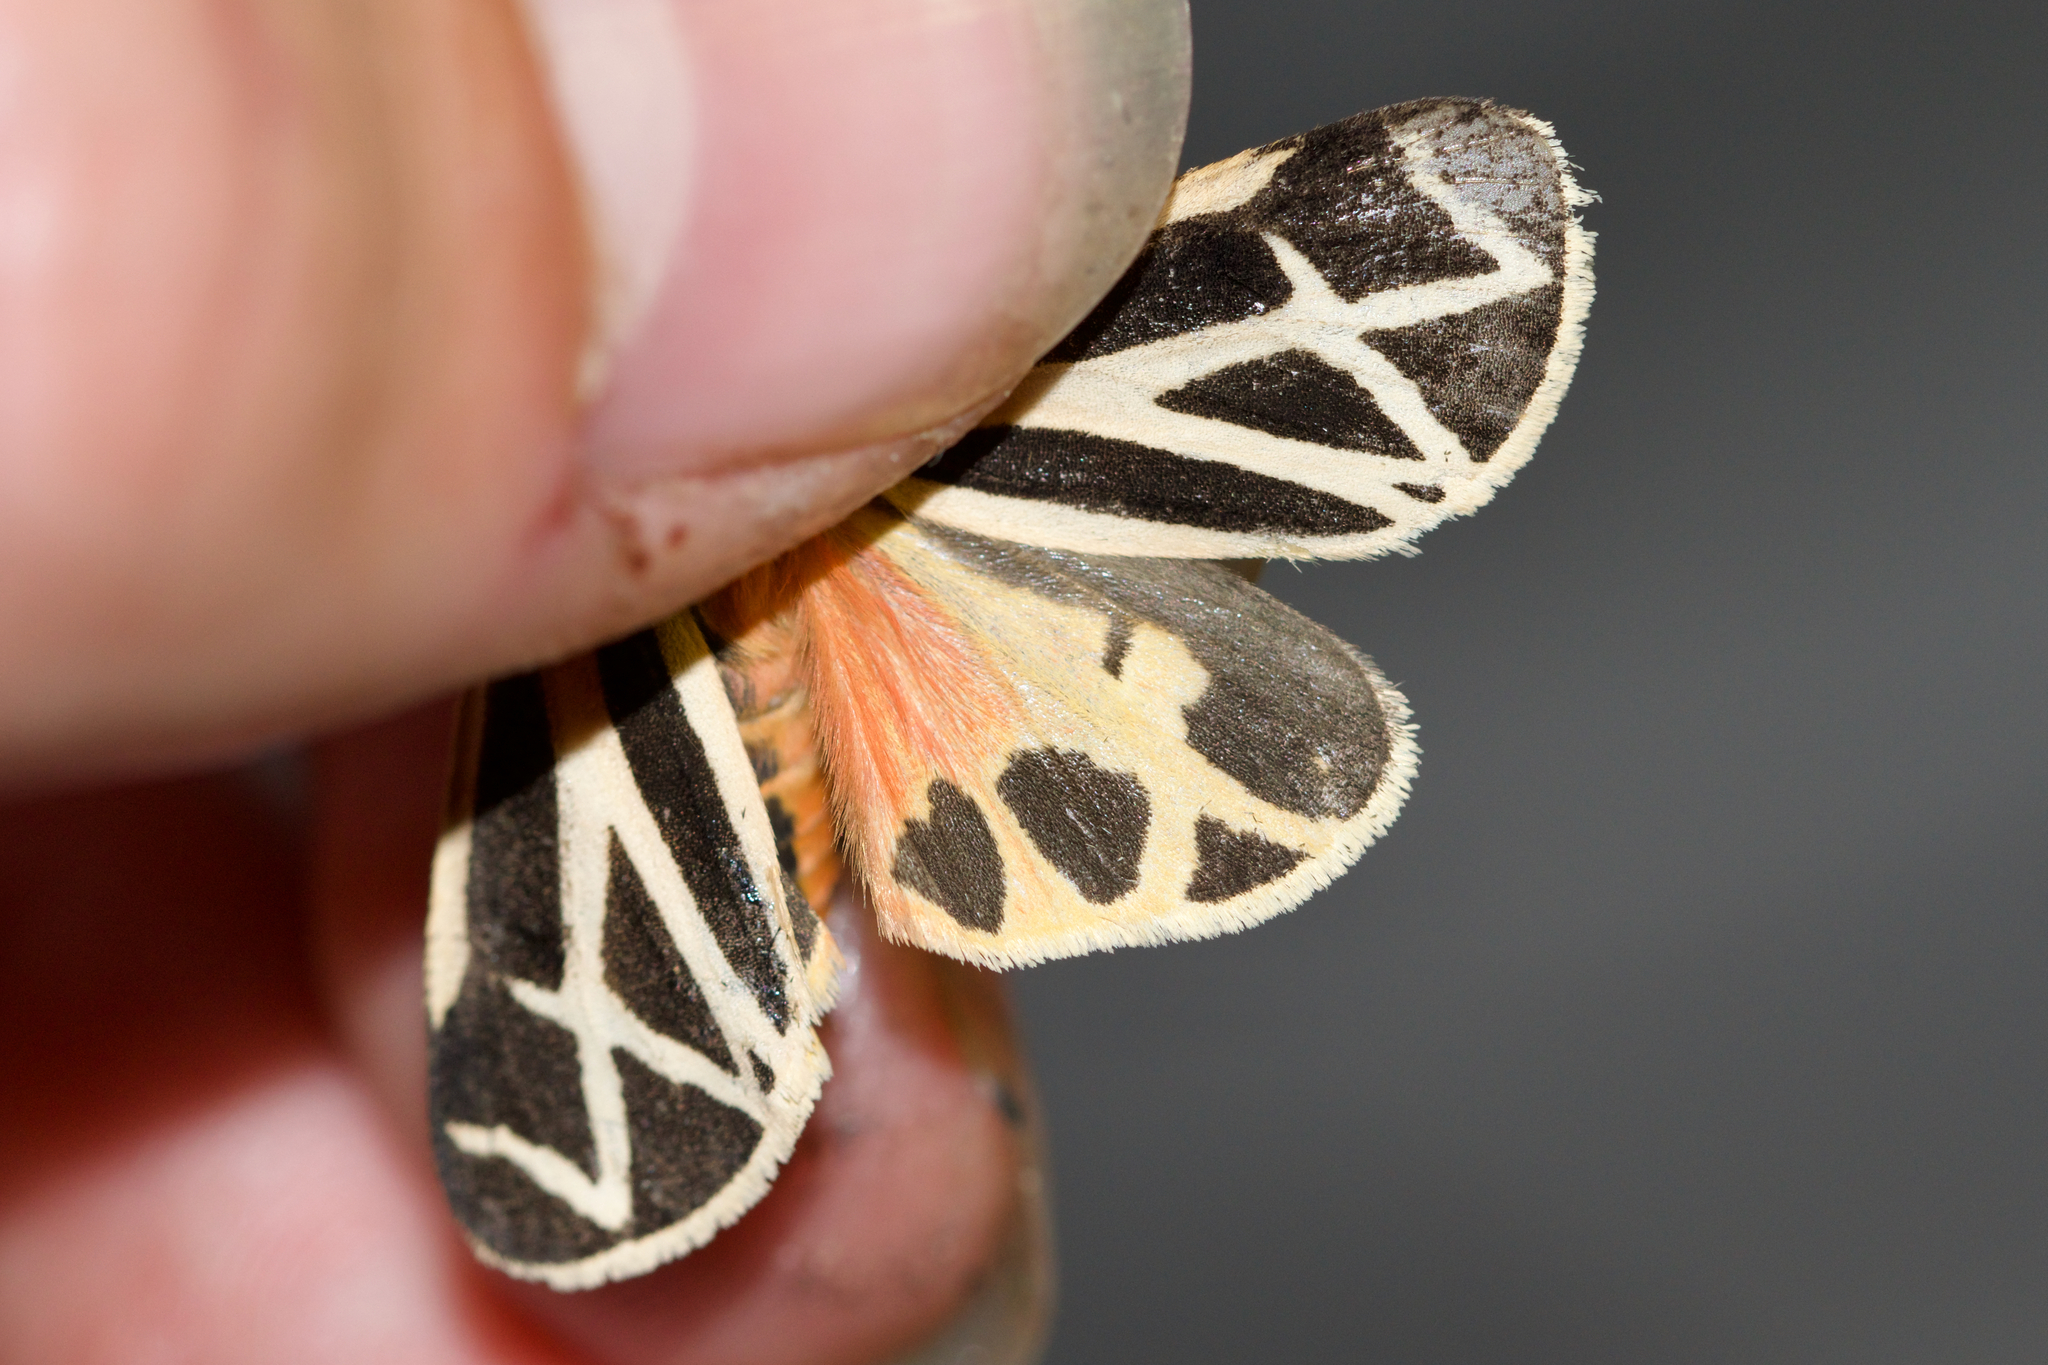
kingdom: Animalia
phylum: Arthropoda
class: Insecta
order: Lepidoptera
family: Erebidae
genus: Apantesis
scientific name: Apantesis phalerata
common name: Harnessed tiger moth
